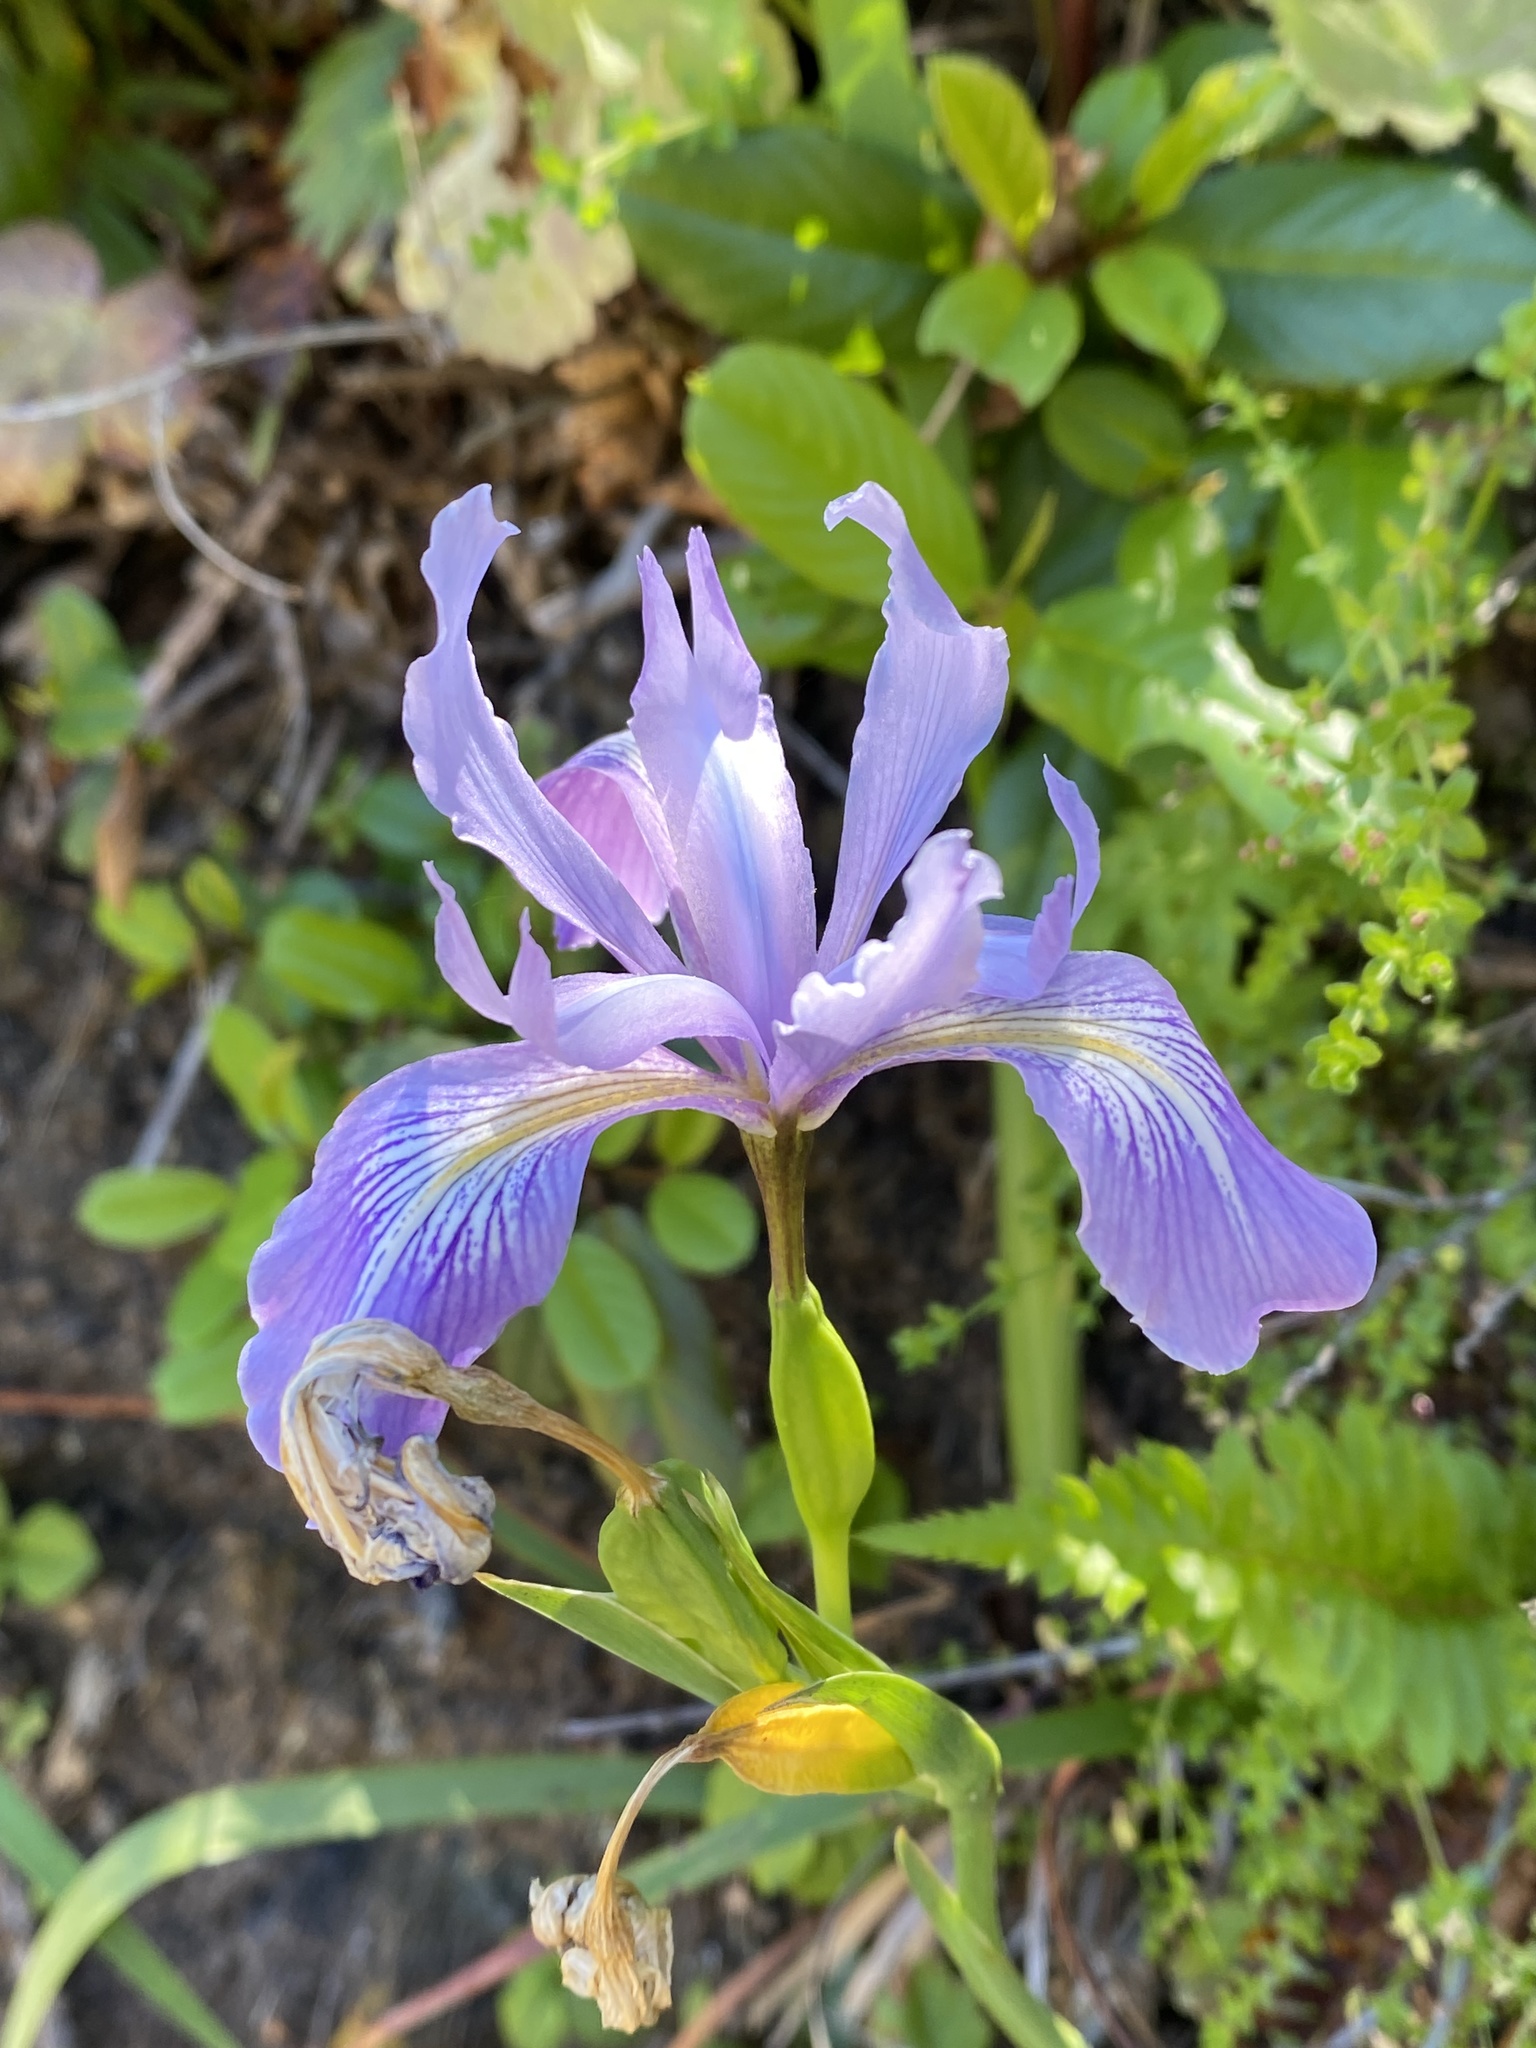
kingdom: Plantae
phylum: Tracheophyta
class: Liliopsida
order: Asparagales
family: Iridaceae
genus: Iris
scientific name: Iris douglasiana
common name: Marin iris
